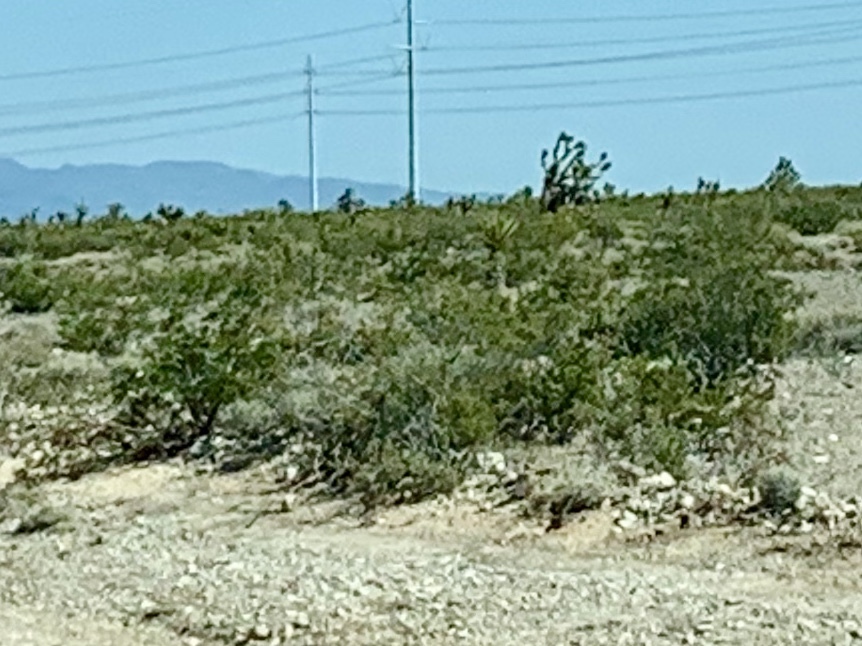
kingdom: Plantae
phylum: Tracheophyta
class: Magnoliopsida
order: Zygophyllales
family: Zygophyllaceae
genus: Larrea
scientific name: Larrea tridentata
